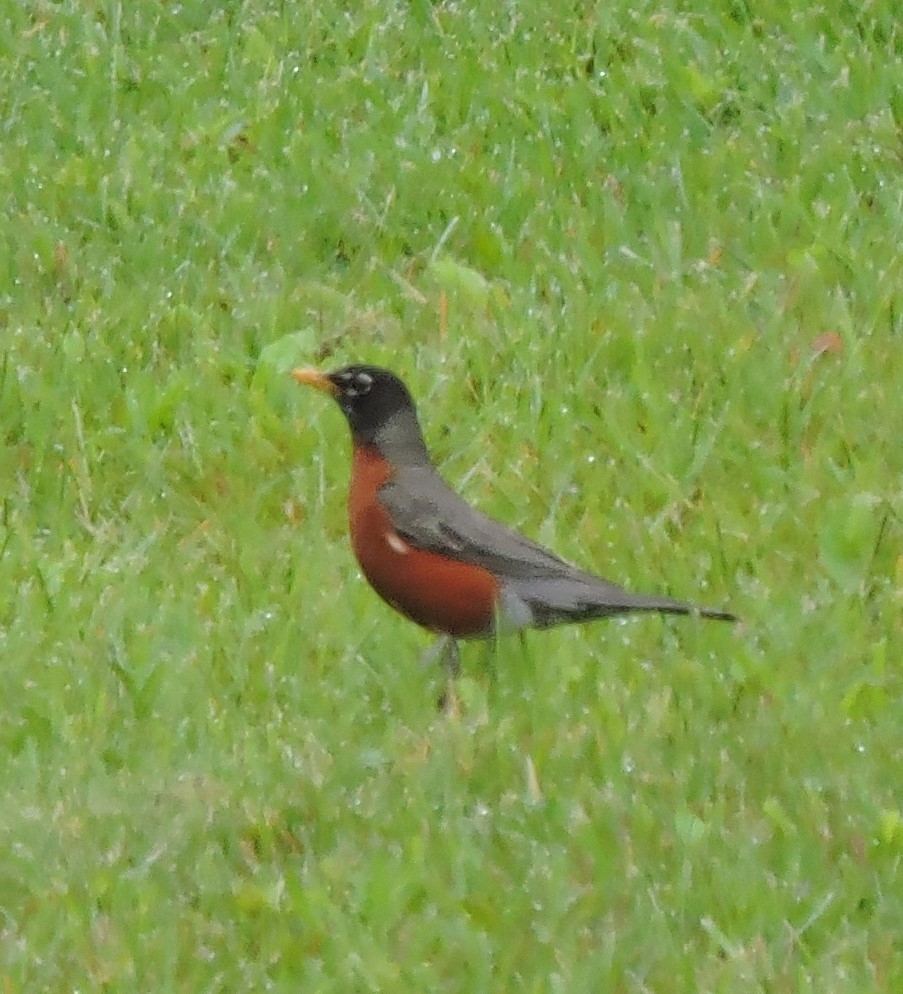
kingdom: Animalia
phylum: Chordata
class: Aves
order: Passeriformes
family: Turdidae
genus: Turdus
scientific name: Turdus migratorius
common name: American robin
